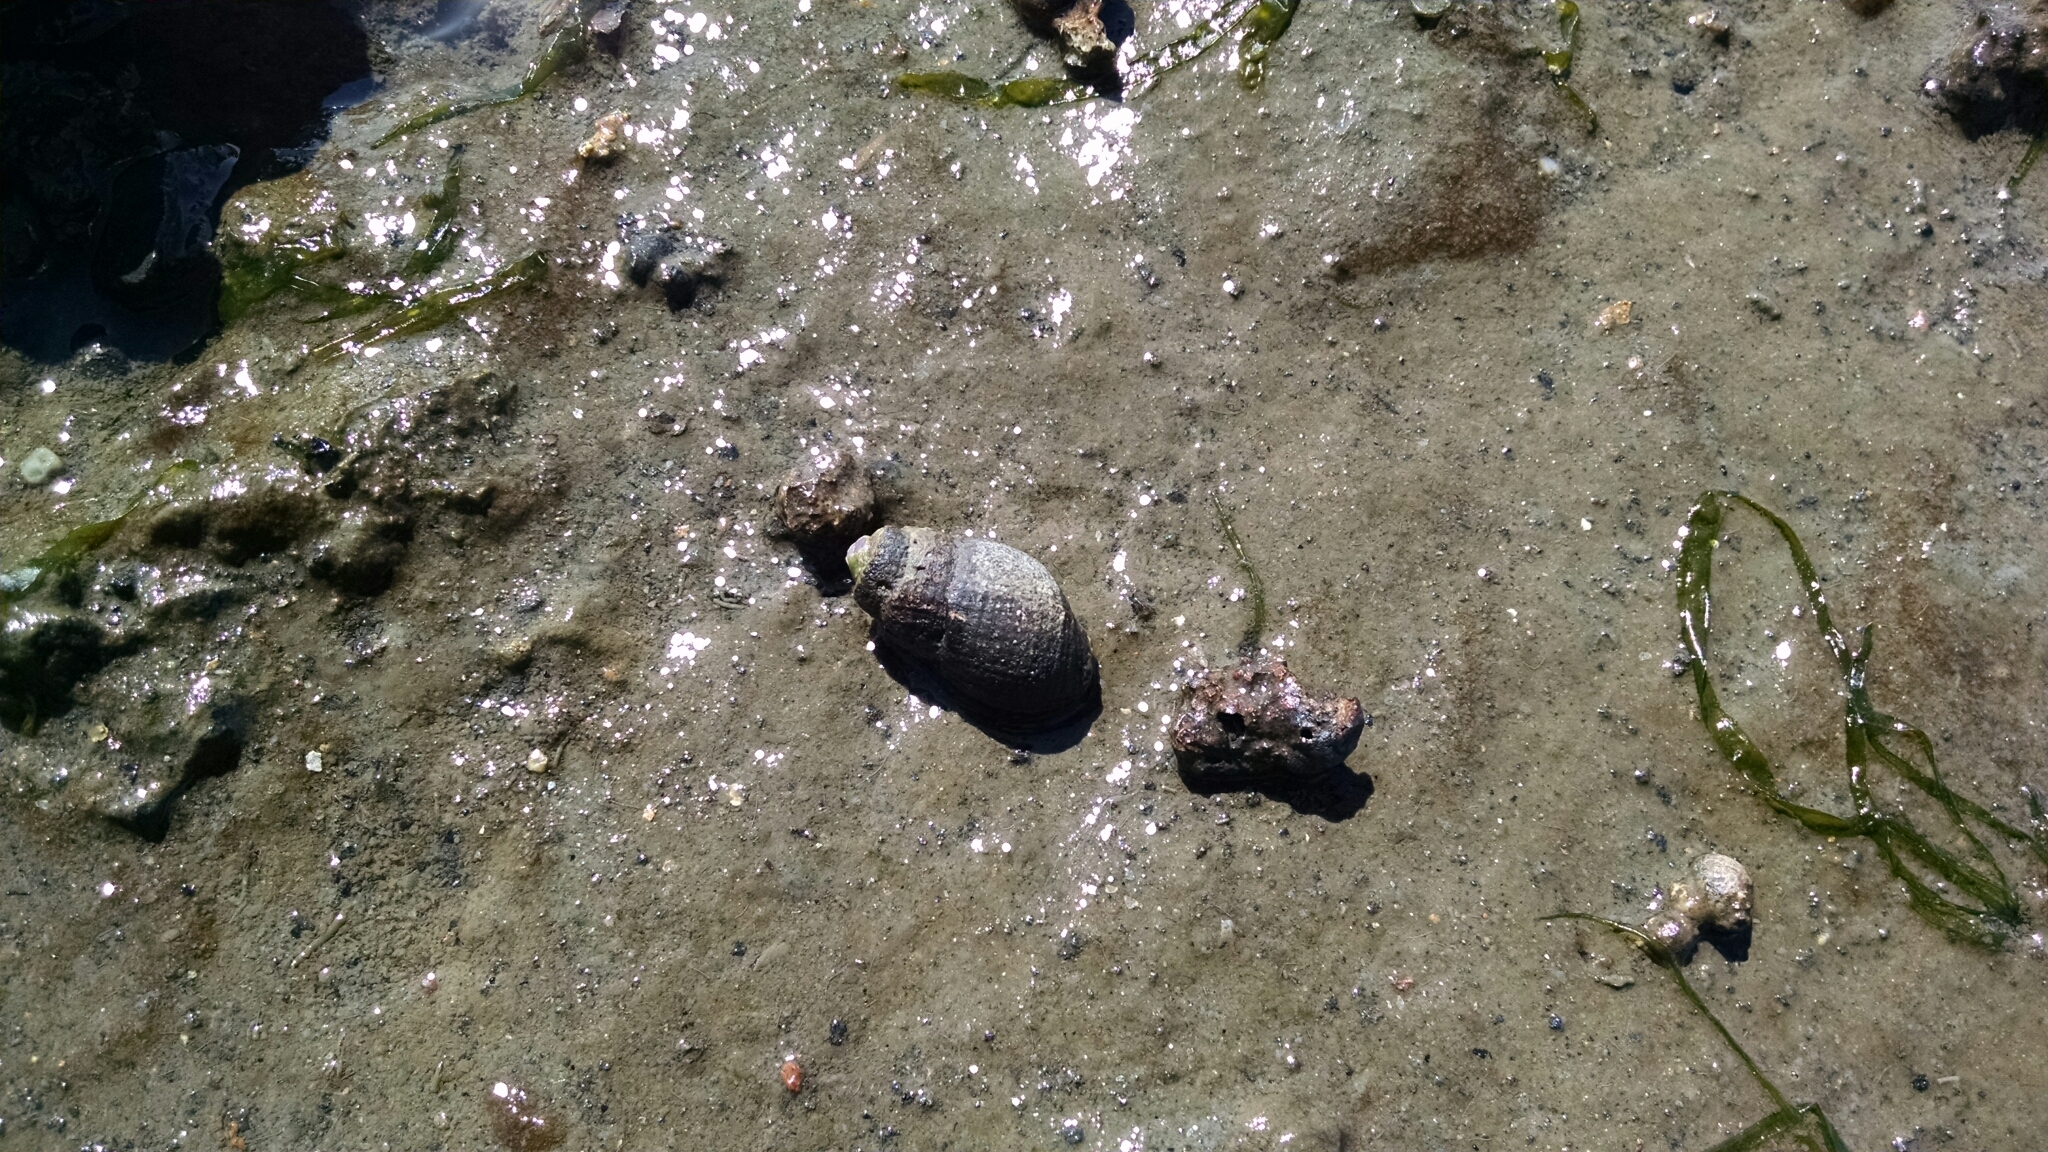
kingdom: Animalia
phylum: Mollusca
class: Gastropoda
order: Neogastropoda
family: Nassariidae
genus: Ilyanassa
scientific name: Ilyanassa obsoleta
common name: Eastern mudsnail
